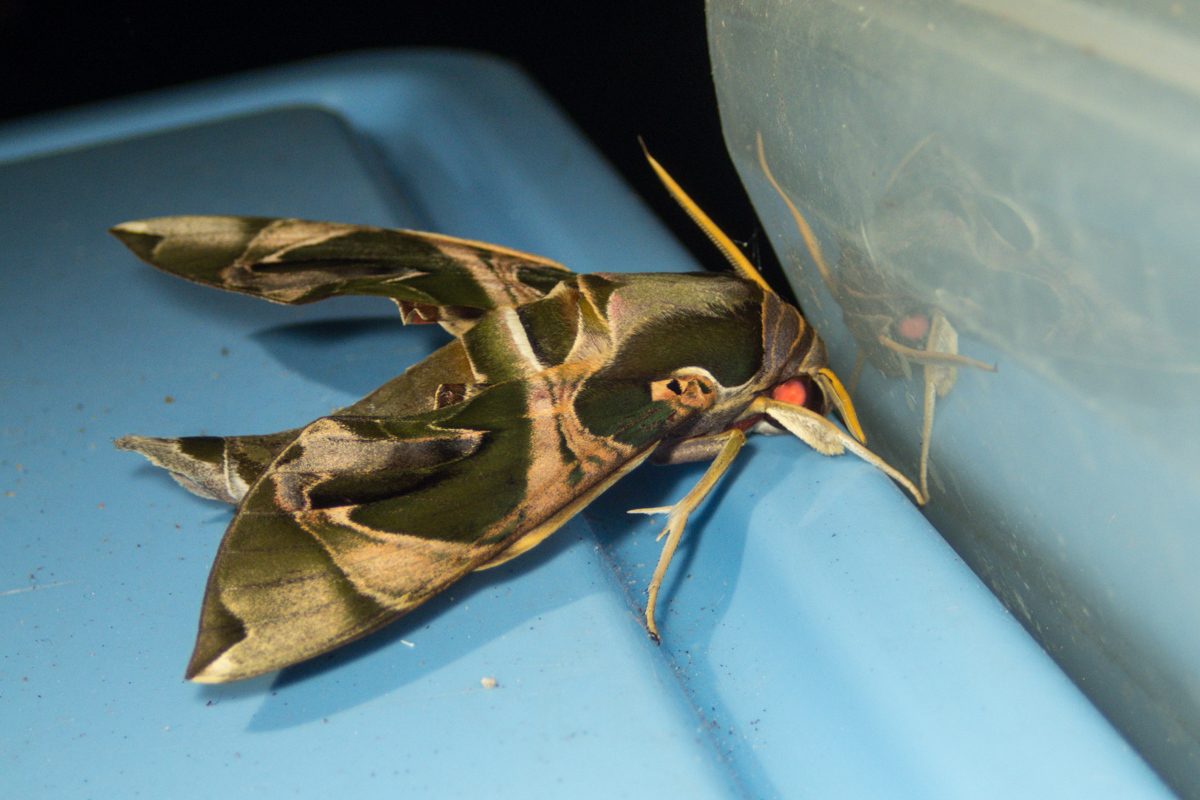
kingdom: Animalia
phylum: Arthropoda
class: Insecta
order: Lepidoptera
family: Sphingidae
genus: Daphnis
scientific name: Daphnis hypothous
